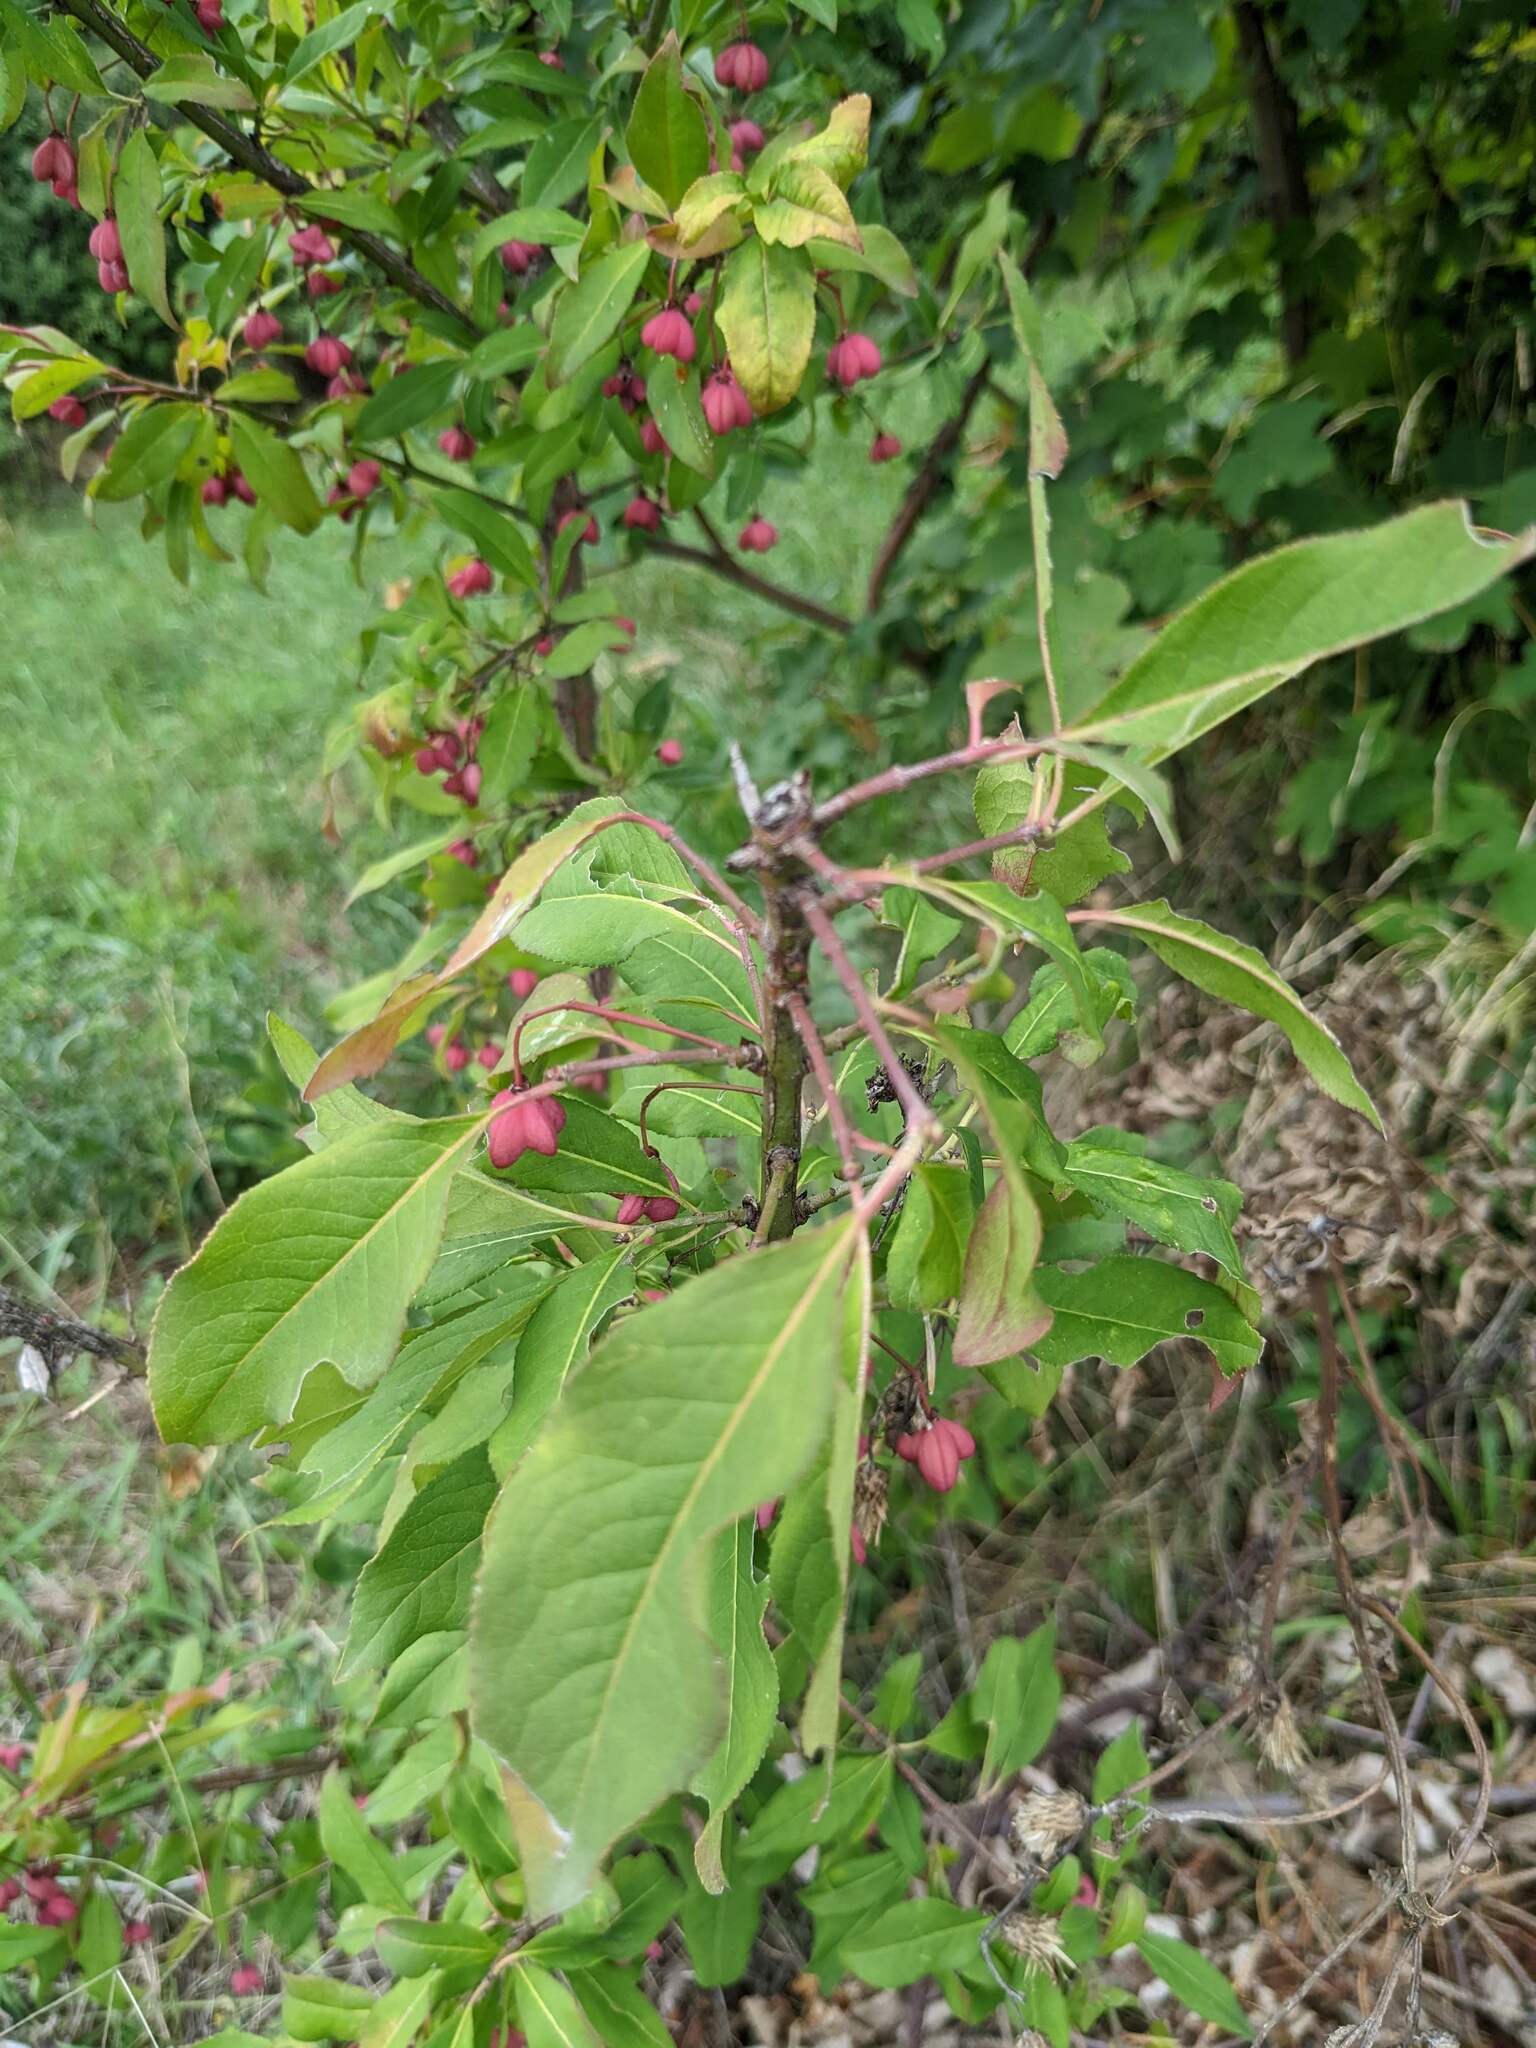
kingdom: Plantae
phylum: Tracheophyta
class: Magnoliopsida
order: Celastrales
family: Celastraceae
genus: Euonymus
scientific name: Euonymus europaeus
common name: Spindle
